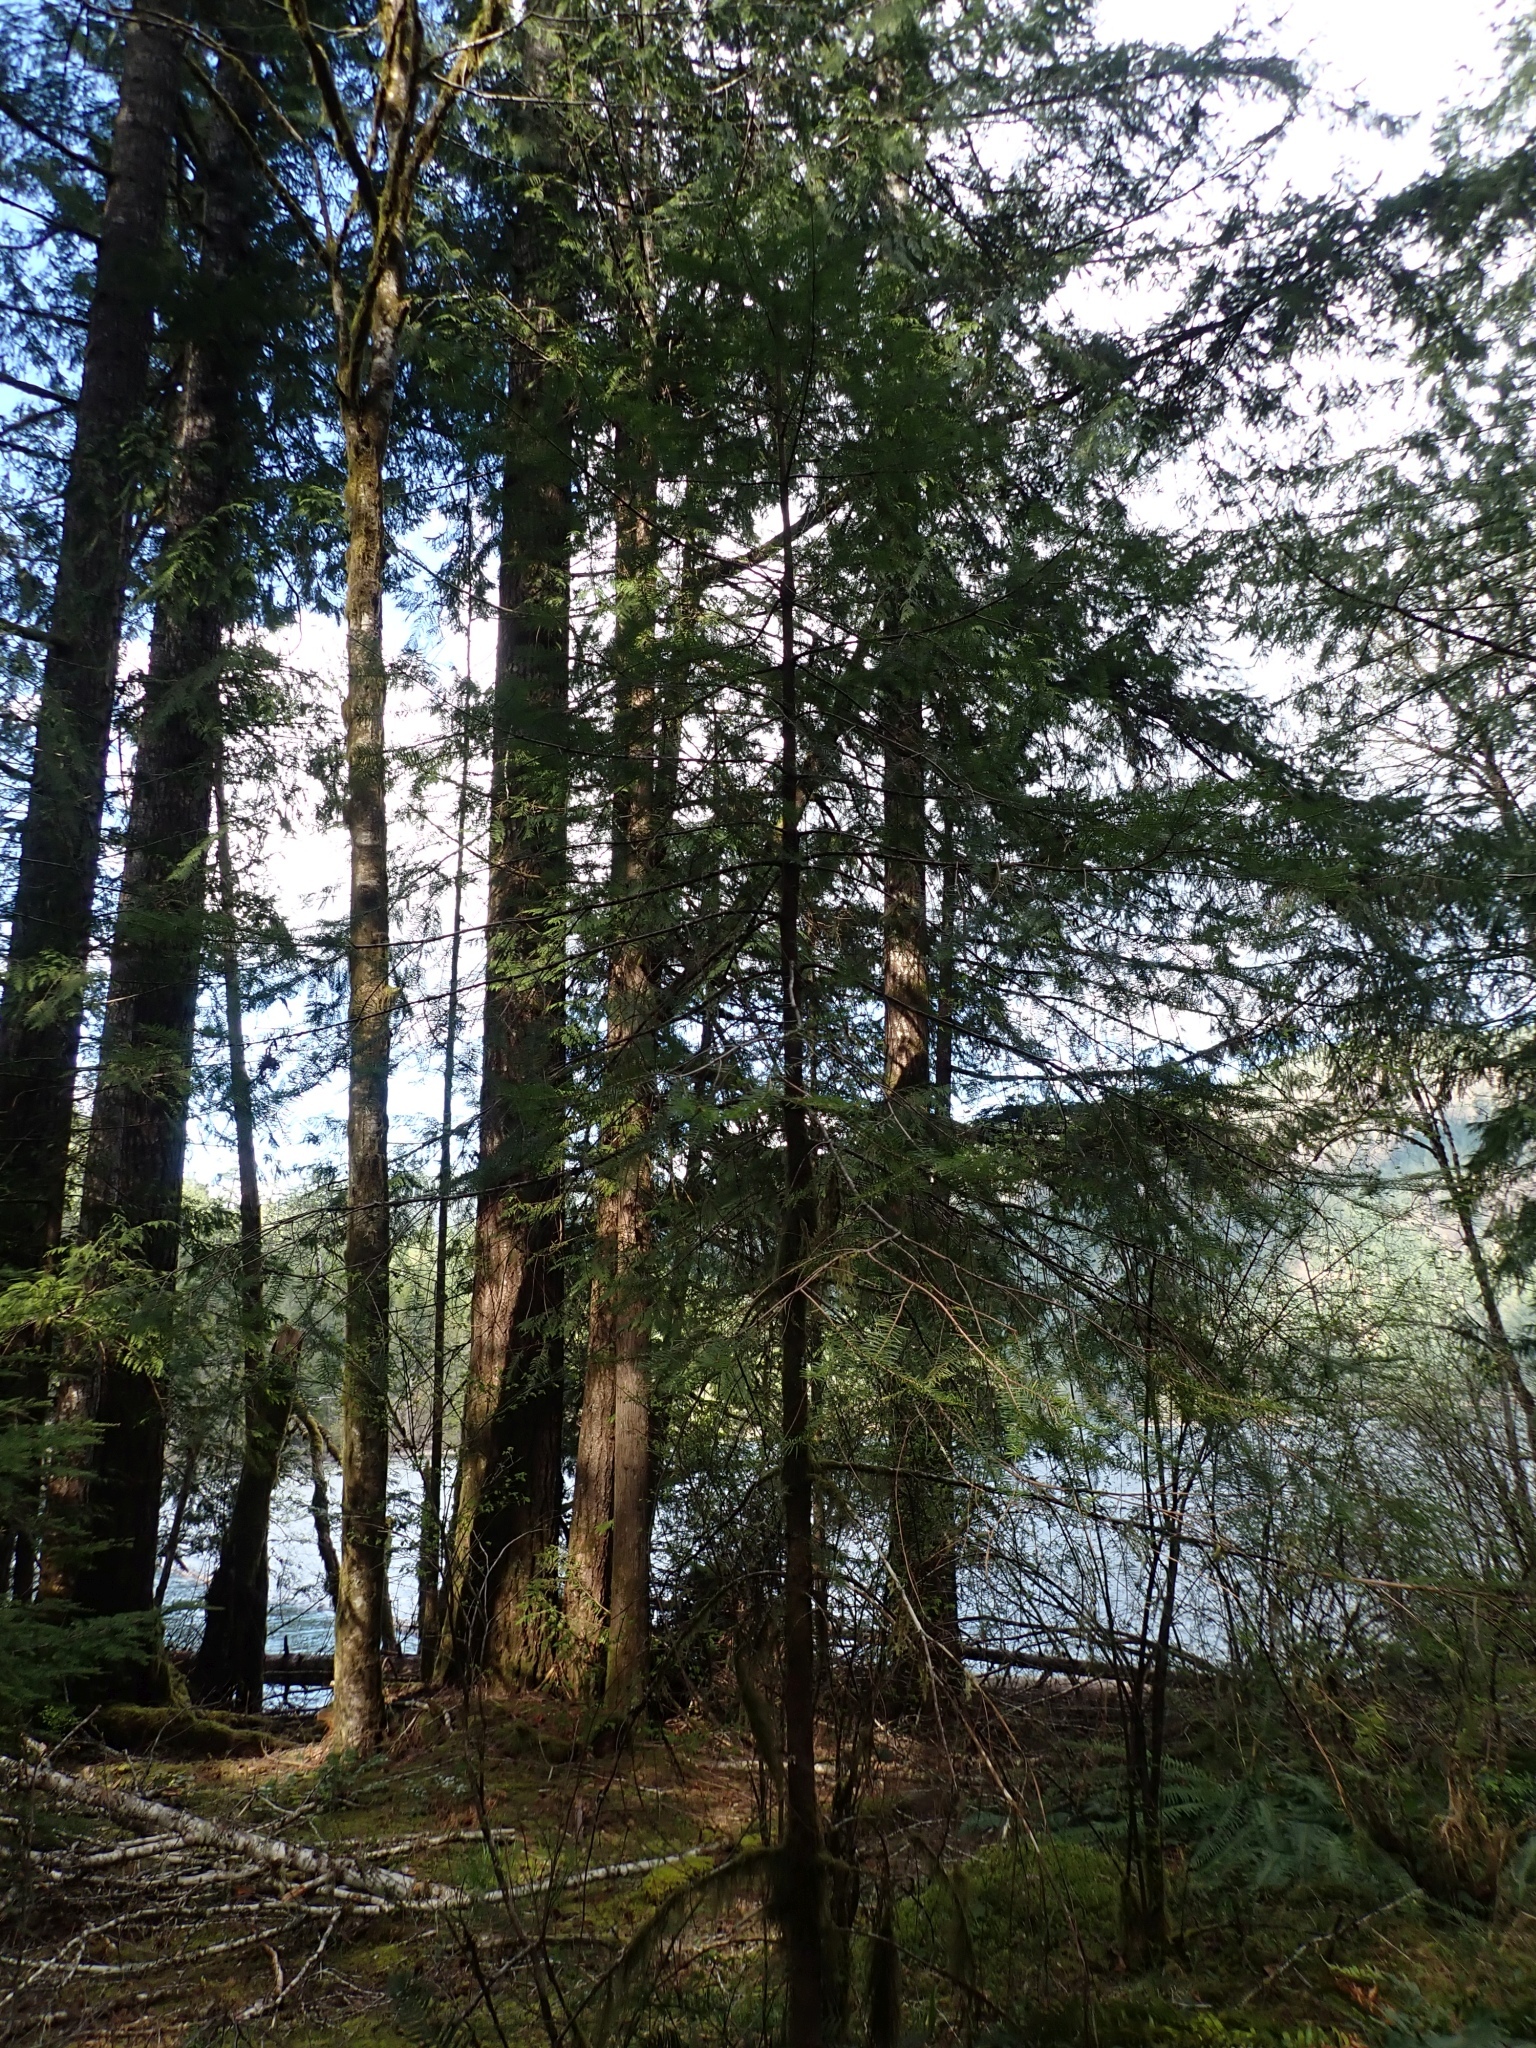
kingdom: Plantae
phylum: Tracheophyta
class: Pinopsida
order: Pinales
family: Pinaceae
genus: Pseudotsuga
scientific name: Pseudotsuga menziesii
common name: Douglas fir
